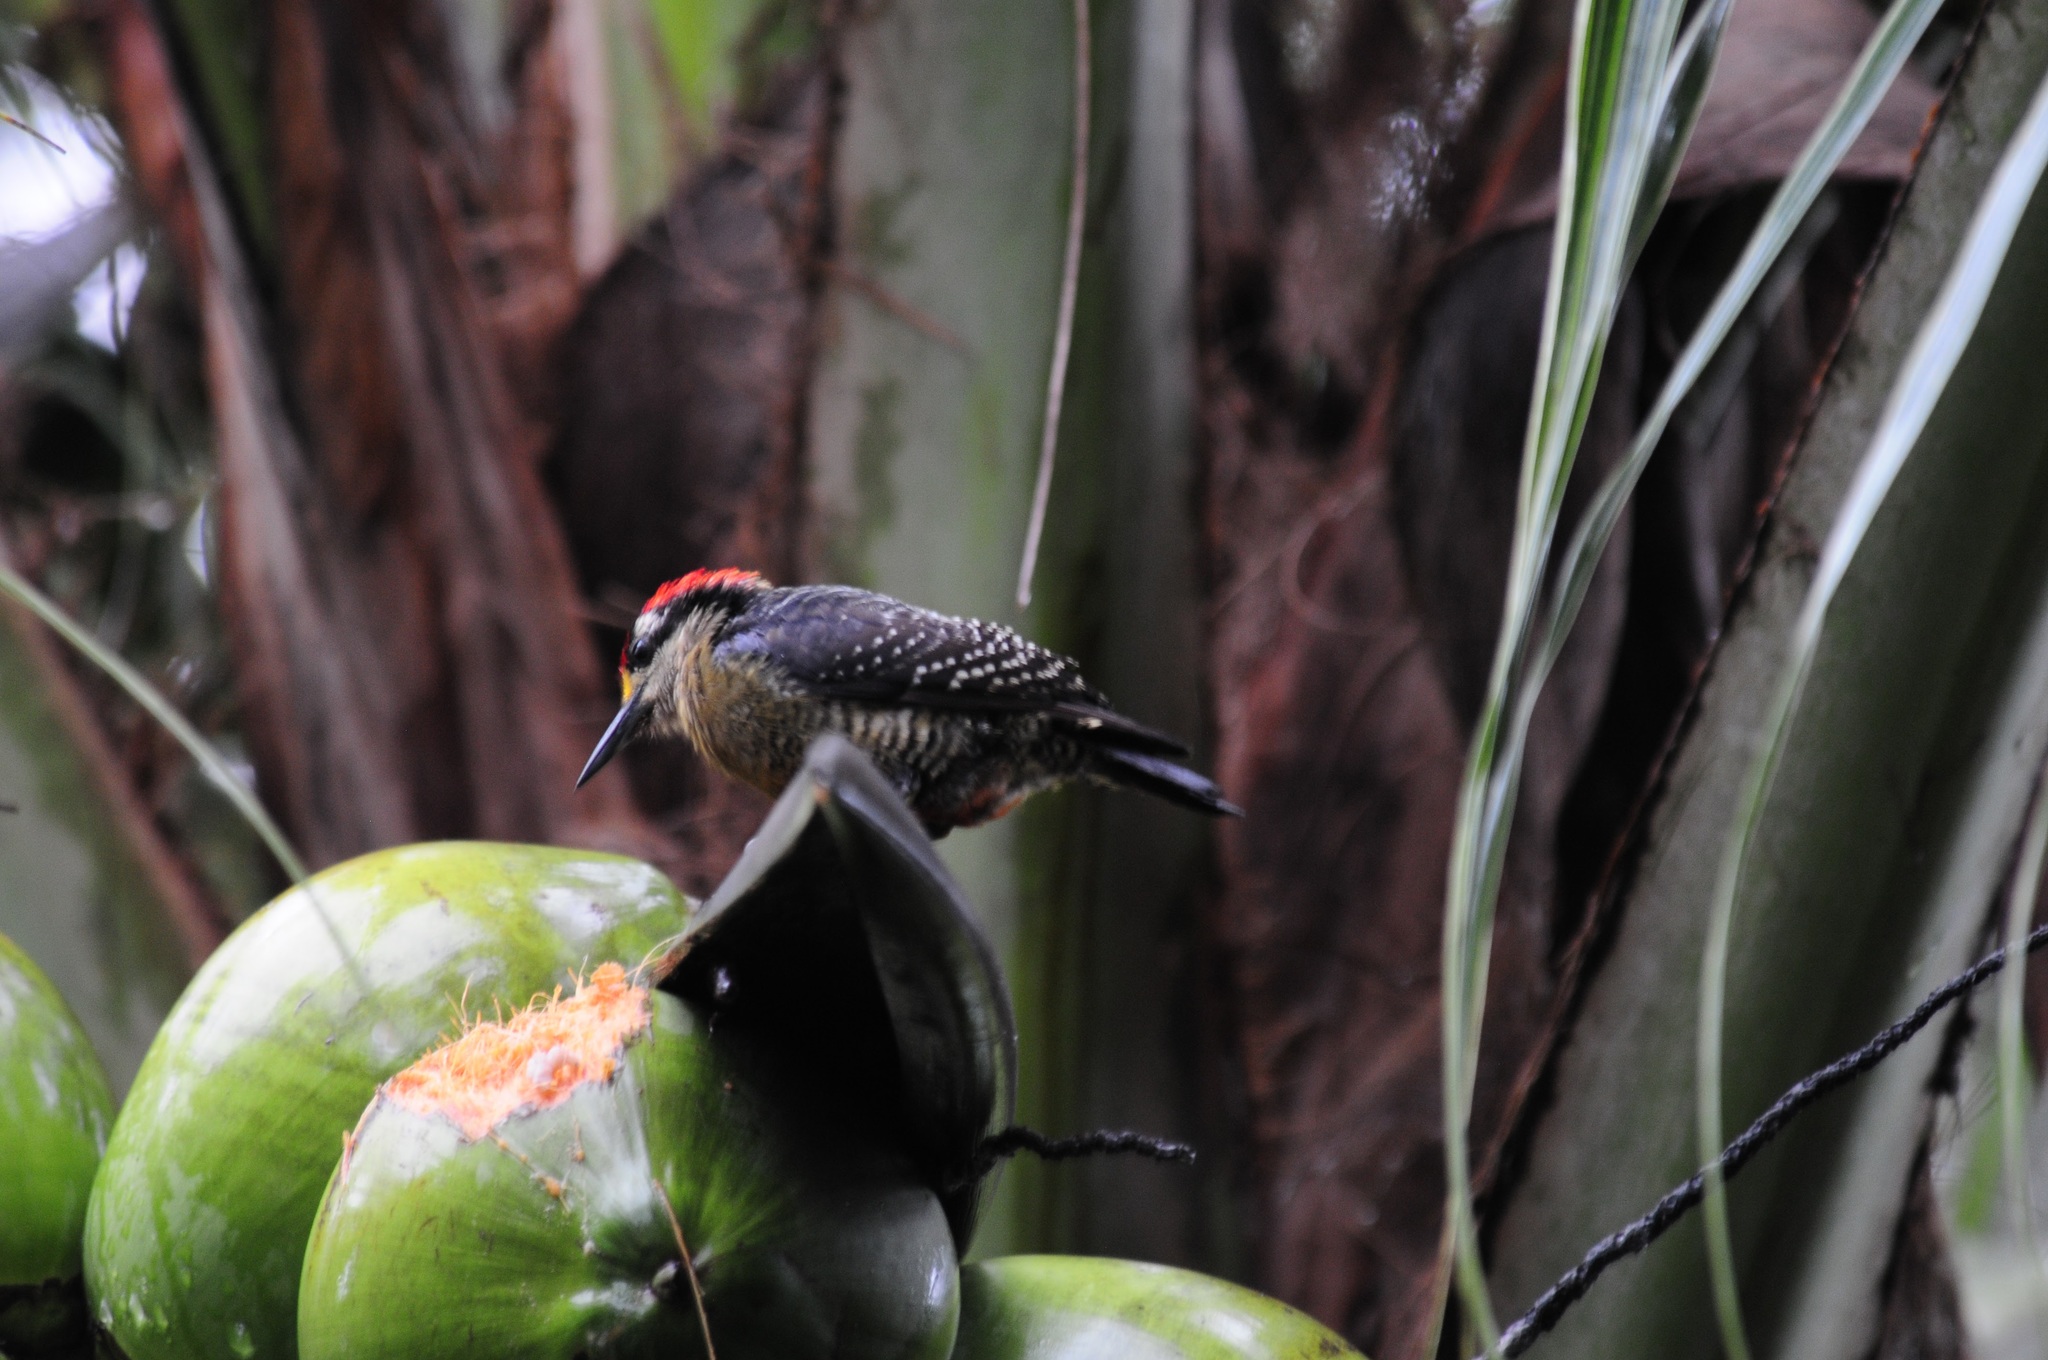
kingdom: Animalia
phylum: Chordata
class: Aves
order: Piciformes
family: Picidae
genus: Melanerpes
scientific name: Melanerpes pucherani
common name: Black-cheeked woodpecker
